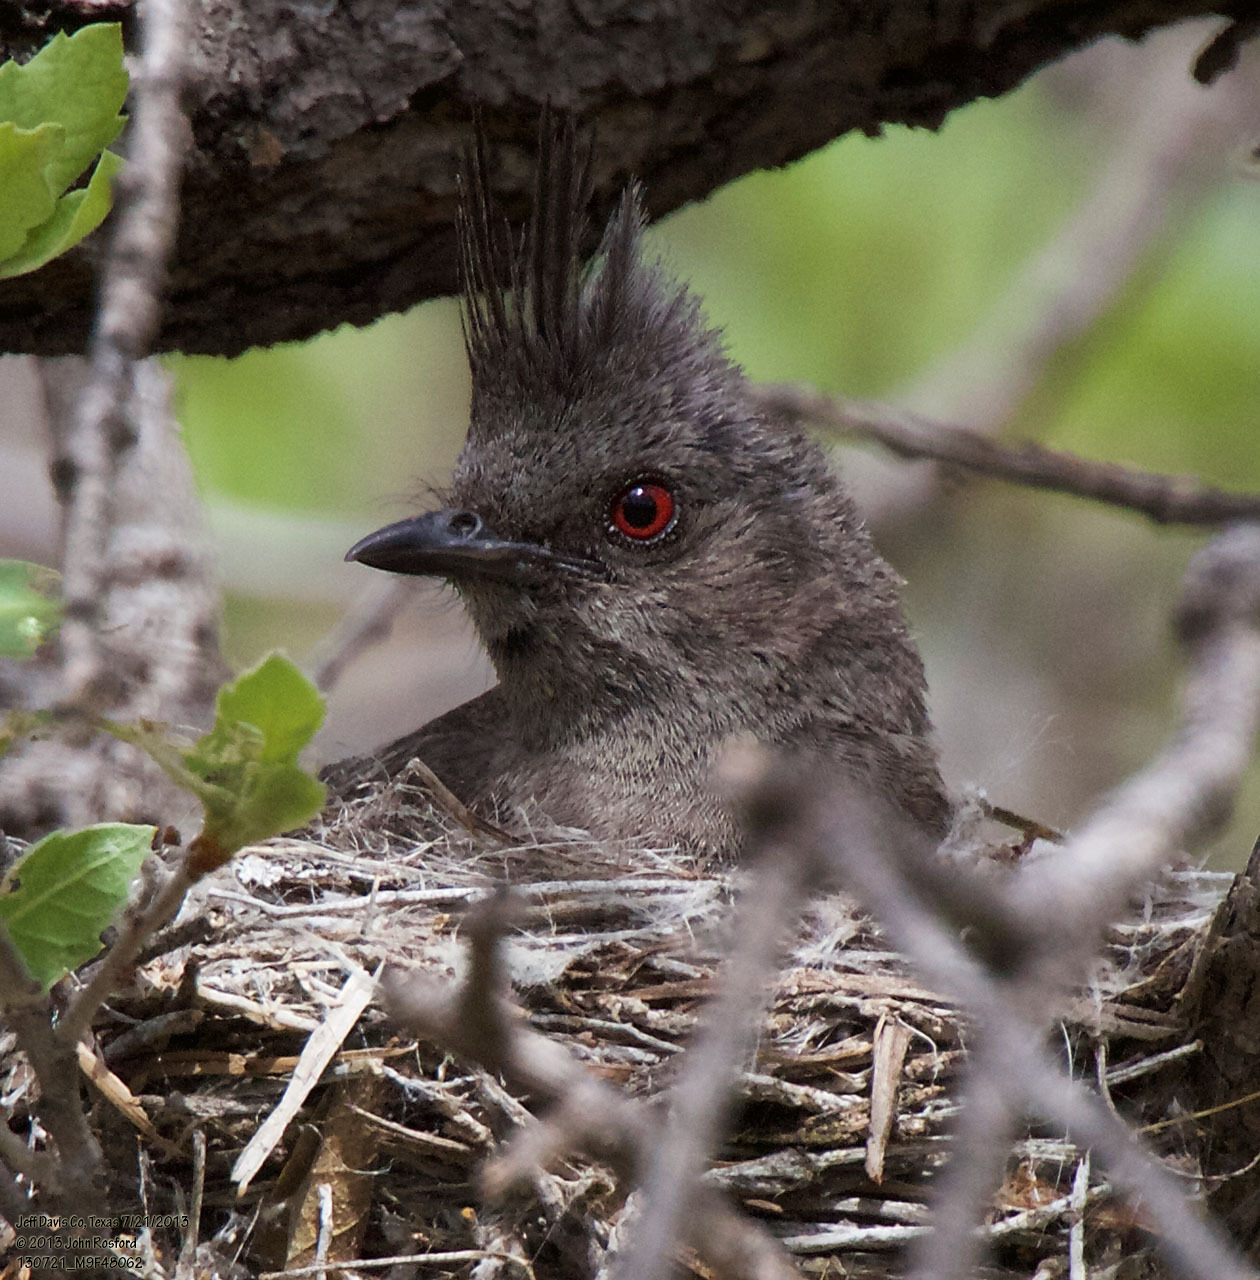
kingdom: Animalia
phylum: Chordata
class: Aves
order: Passeriformes
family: Ptilogonatidae
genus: Phainopepla
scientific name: Phainopepla nitens
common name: Phainopepla
